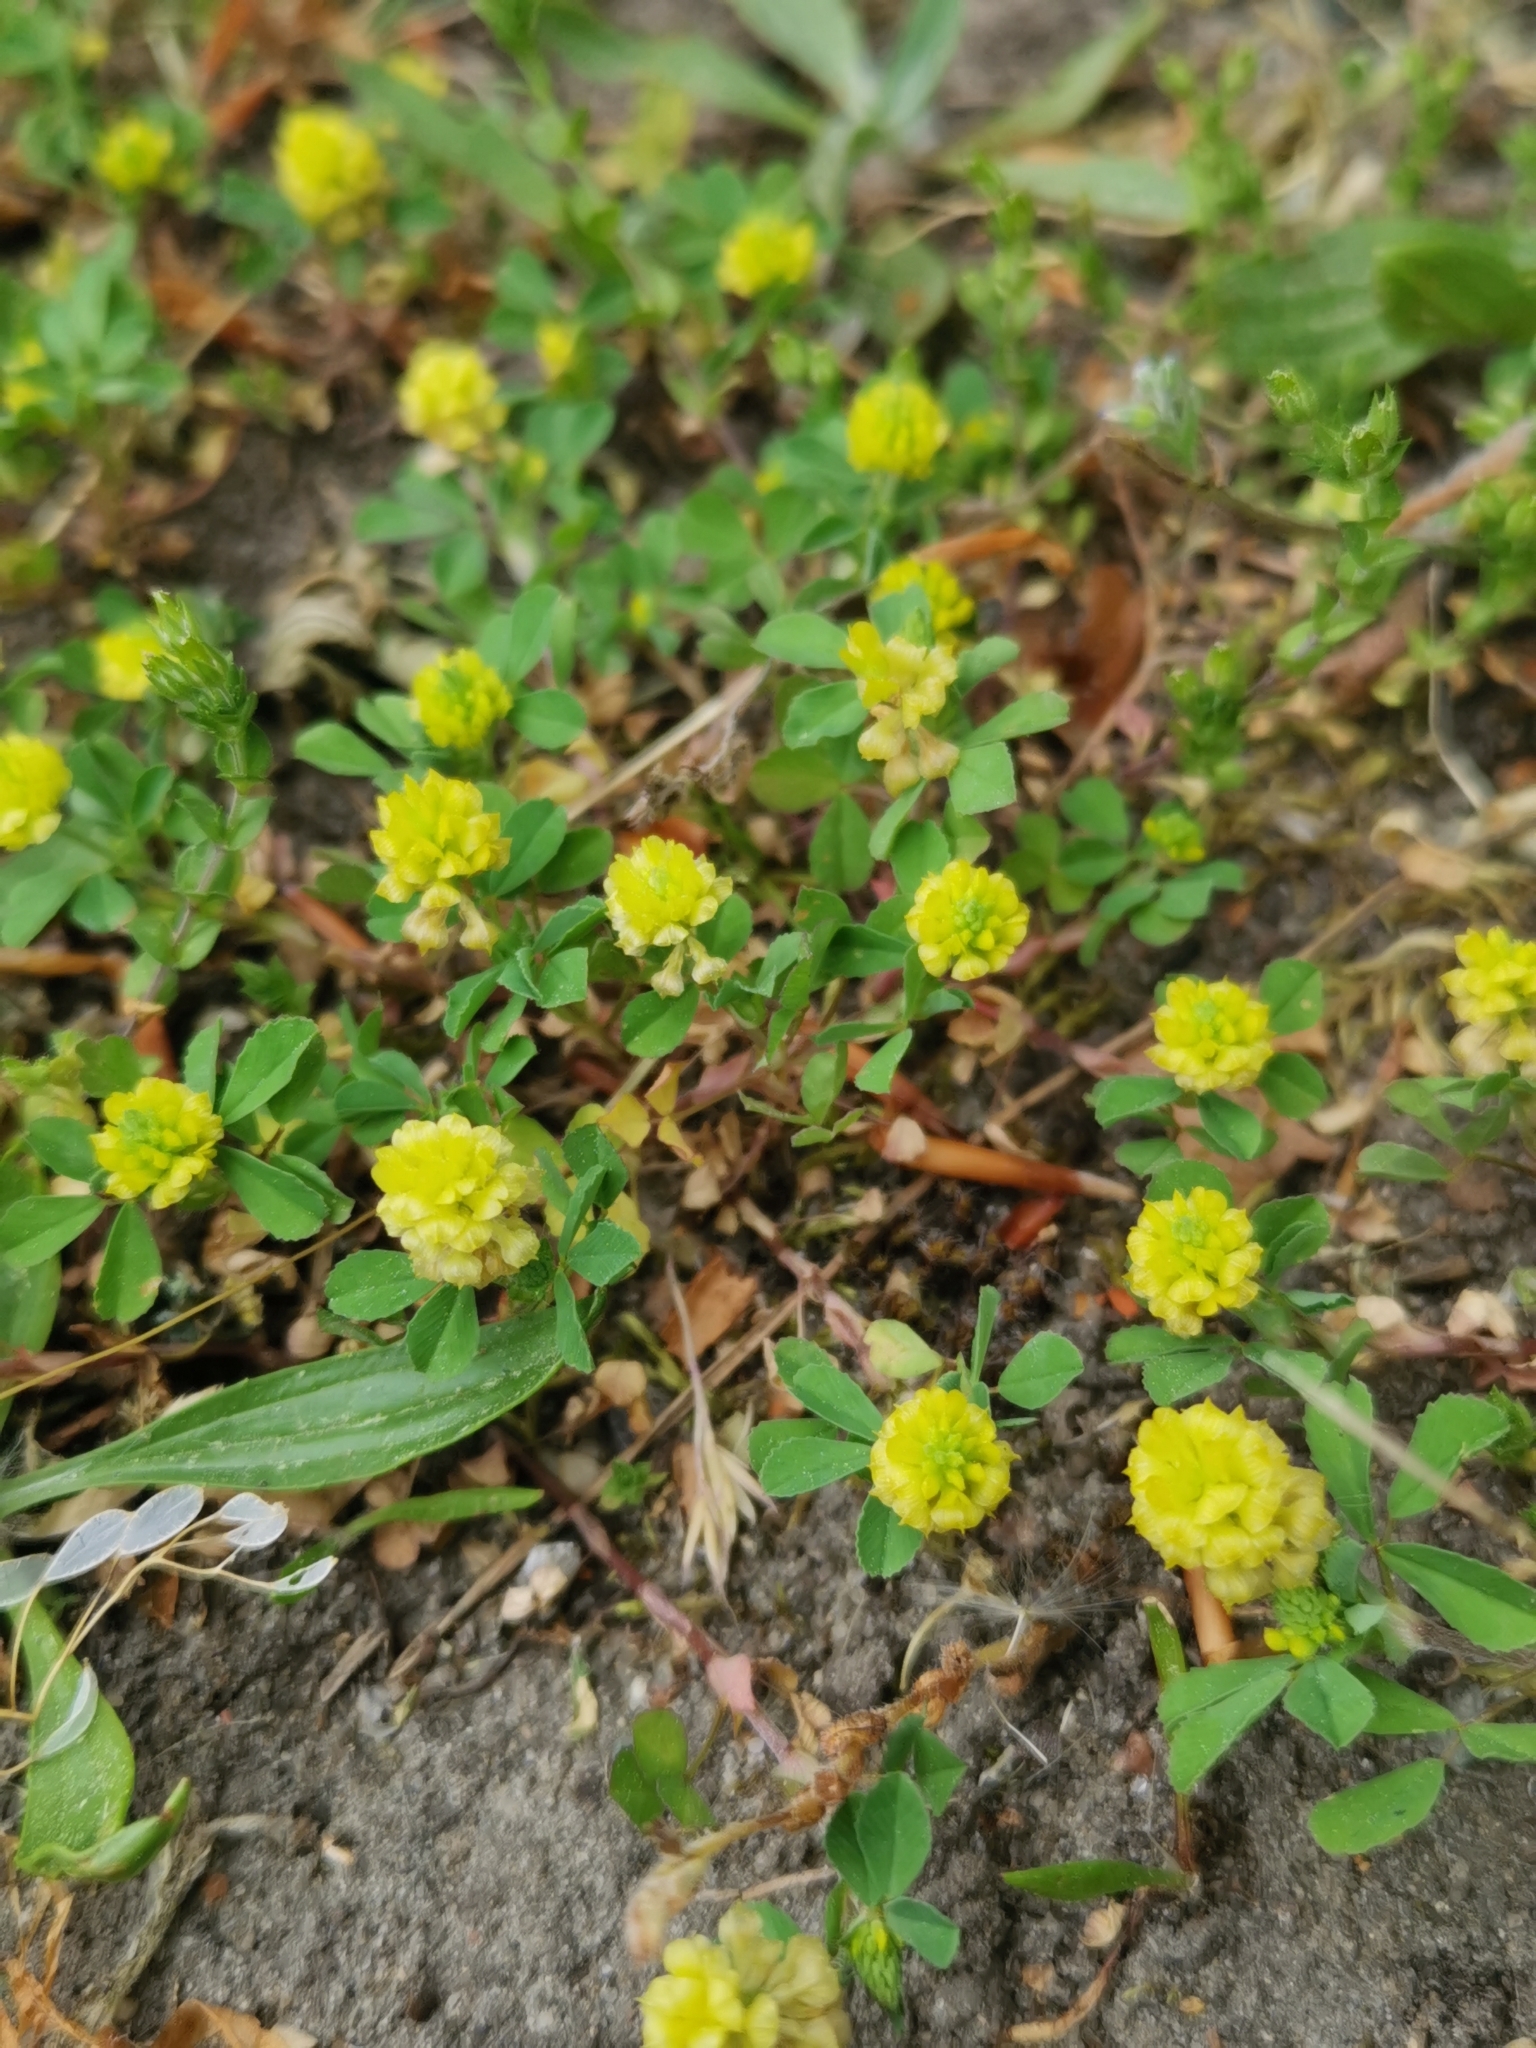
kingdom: Plantae
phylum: Tracheophyta
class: Magnoliopsida
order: Fabales
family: Fabaceae
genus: Trifolium
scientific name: Trifolium campestre
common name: Field clover
